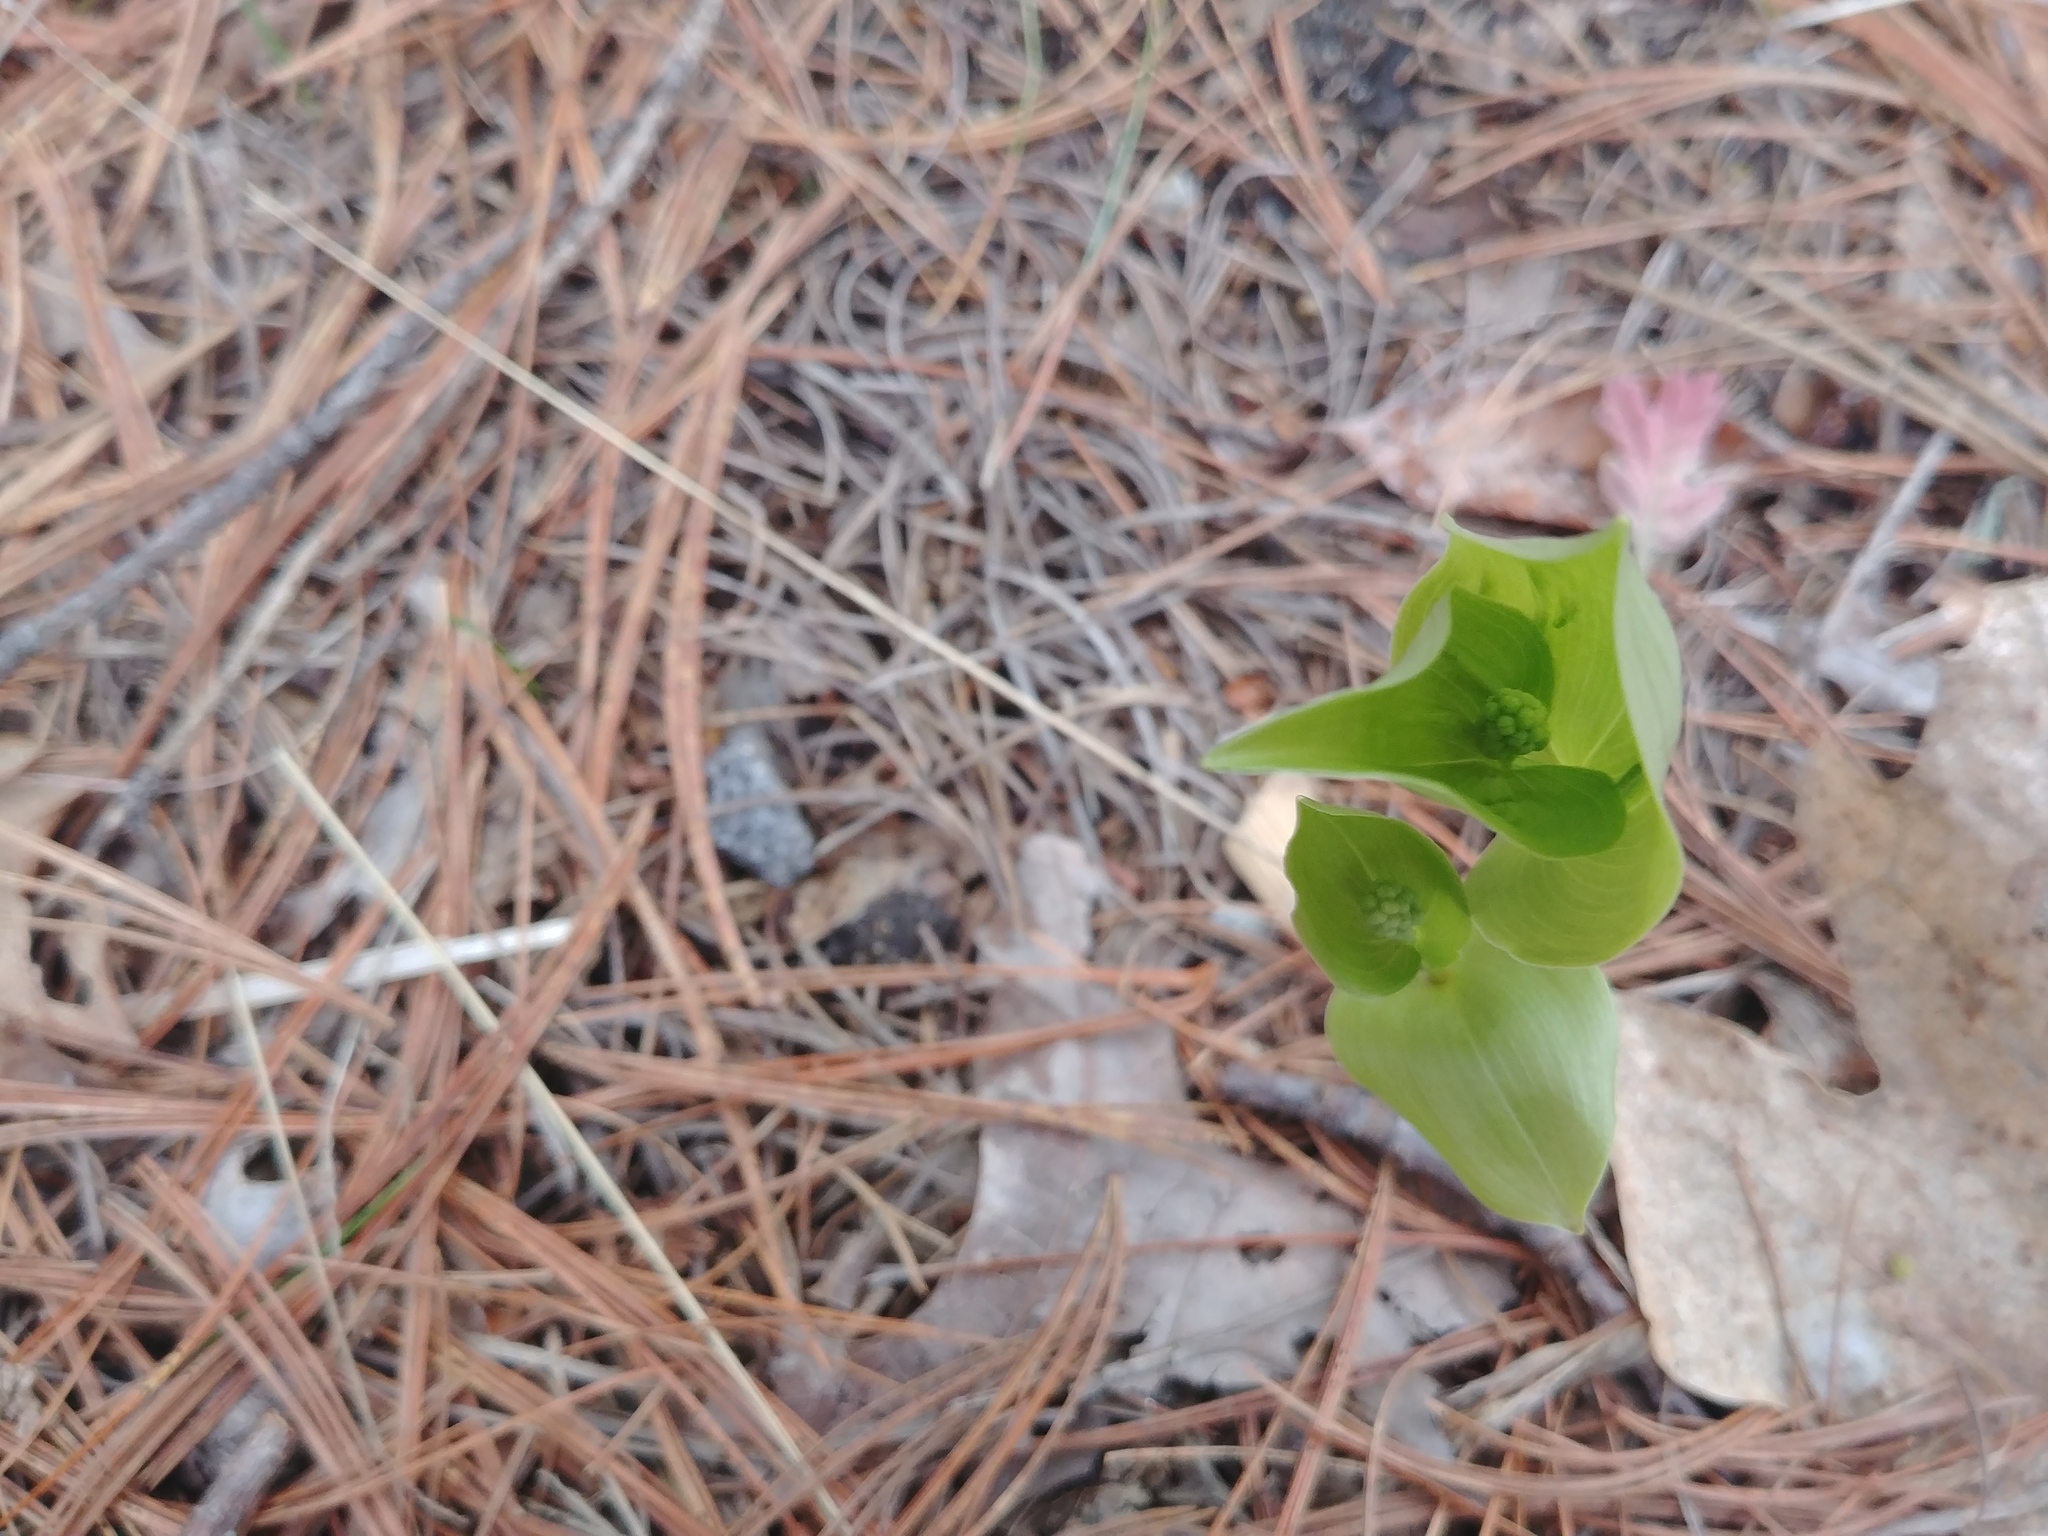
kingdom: Plantae
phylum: Tracheophyta
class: Liliopsida
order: Asparagales
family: Asparagaceae
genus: Maianthemum
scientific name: Maianthemum canadense
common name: False lily-of-the-valley
